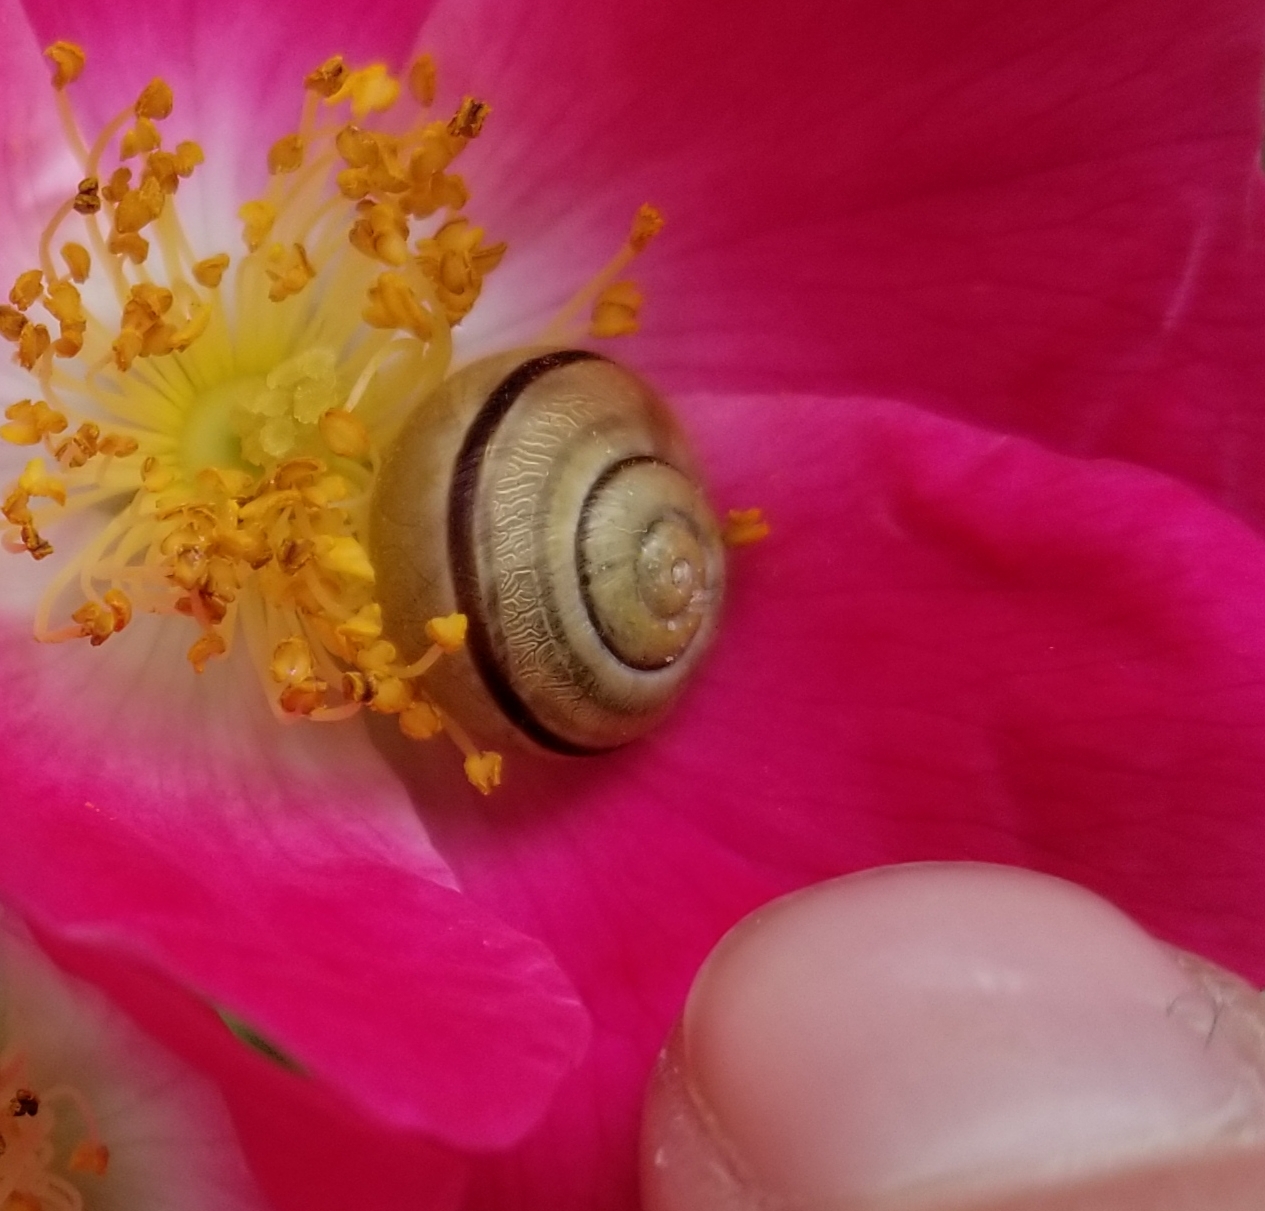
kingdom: Animalia
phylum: Mollusca
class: Gastropoda
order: Stylommatophora
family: Helicidae
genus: Cepaea
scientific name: Cepaea nemoralis
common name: Grovesnail
